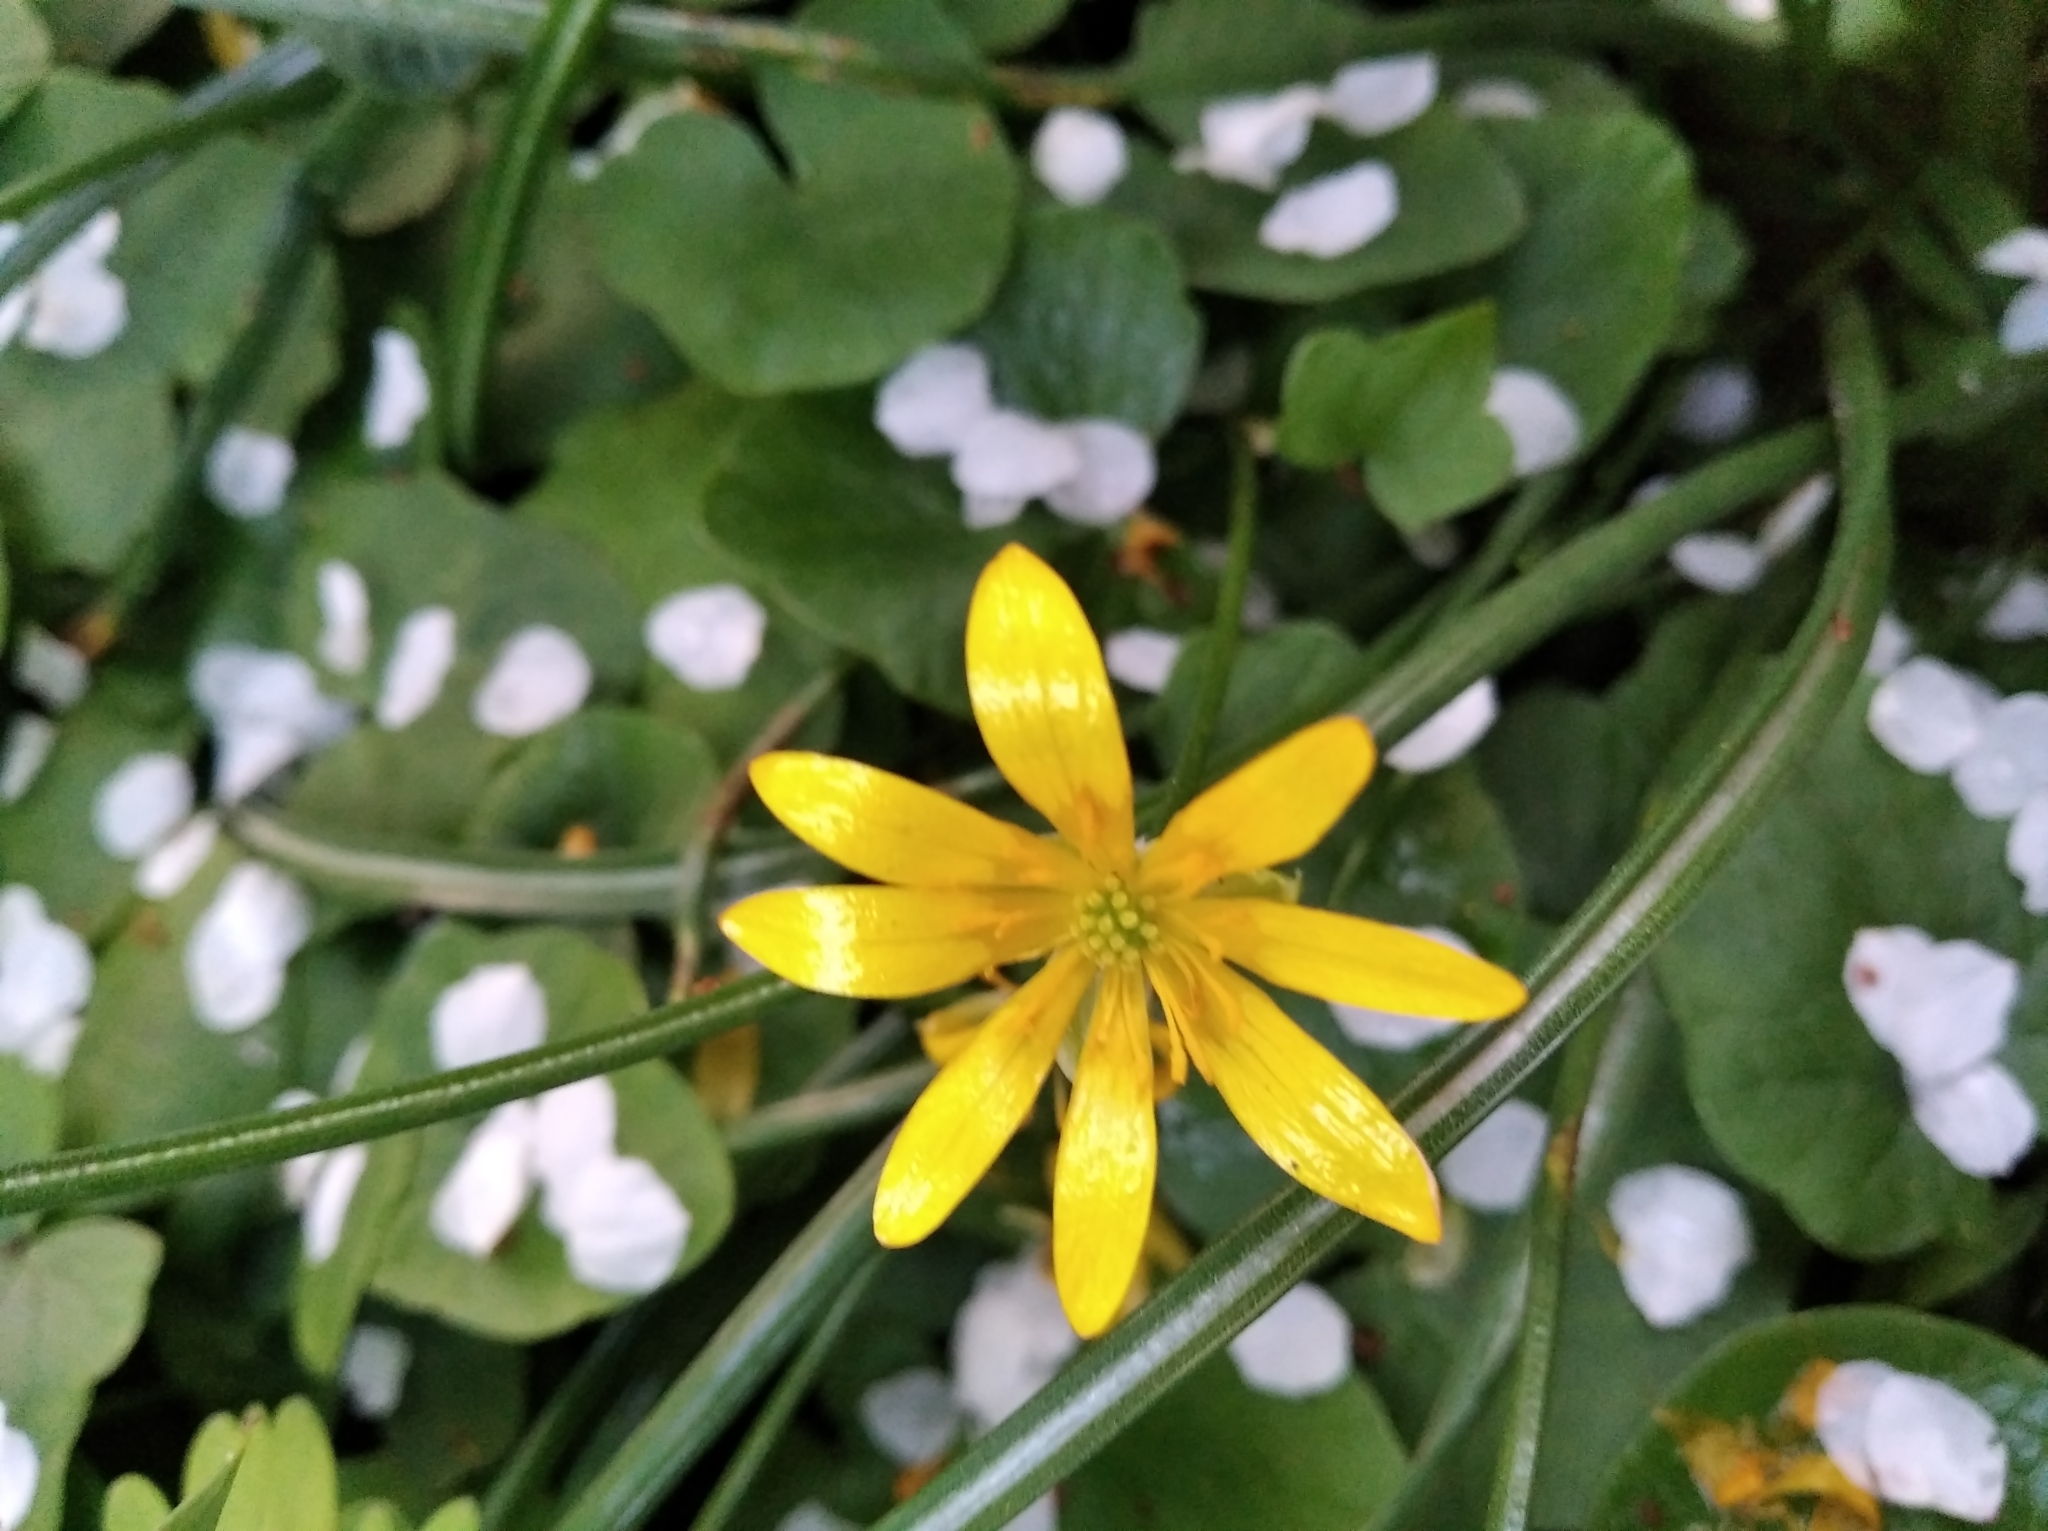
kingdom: Plantae
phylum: Tracheophyta
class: Magnoliopsida
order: Ranunculales
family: Ranunculaceae
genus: Ficaria
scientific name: Ficaria verna
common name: Lesser celandine
